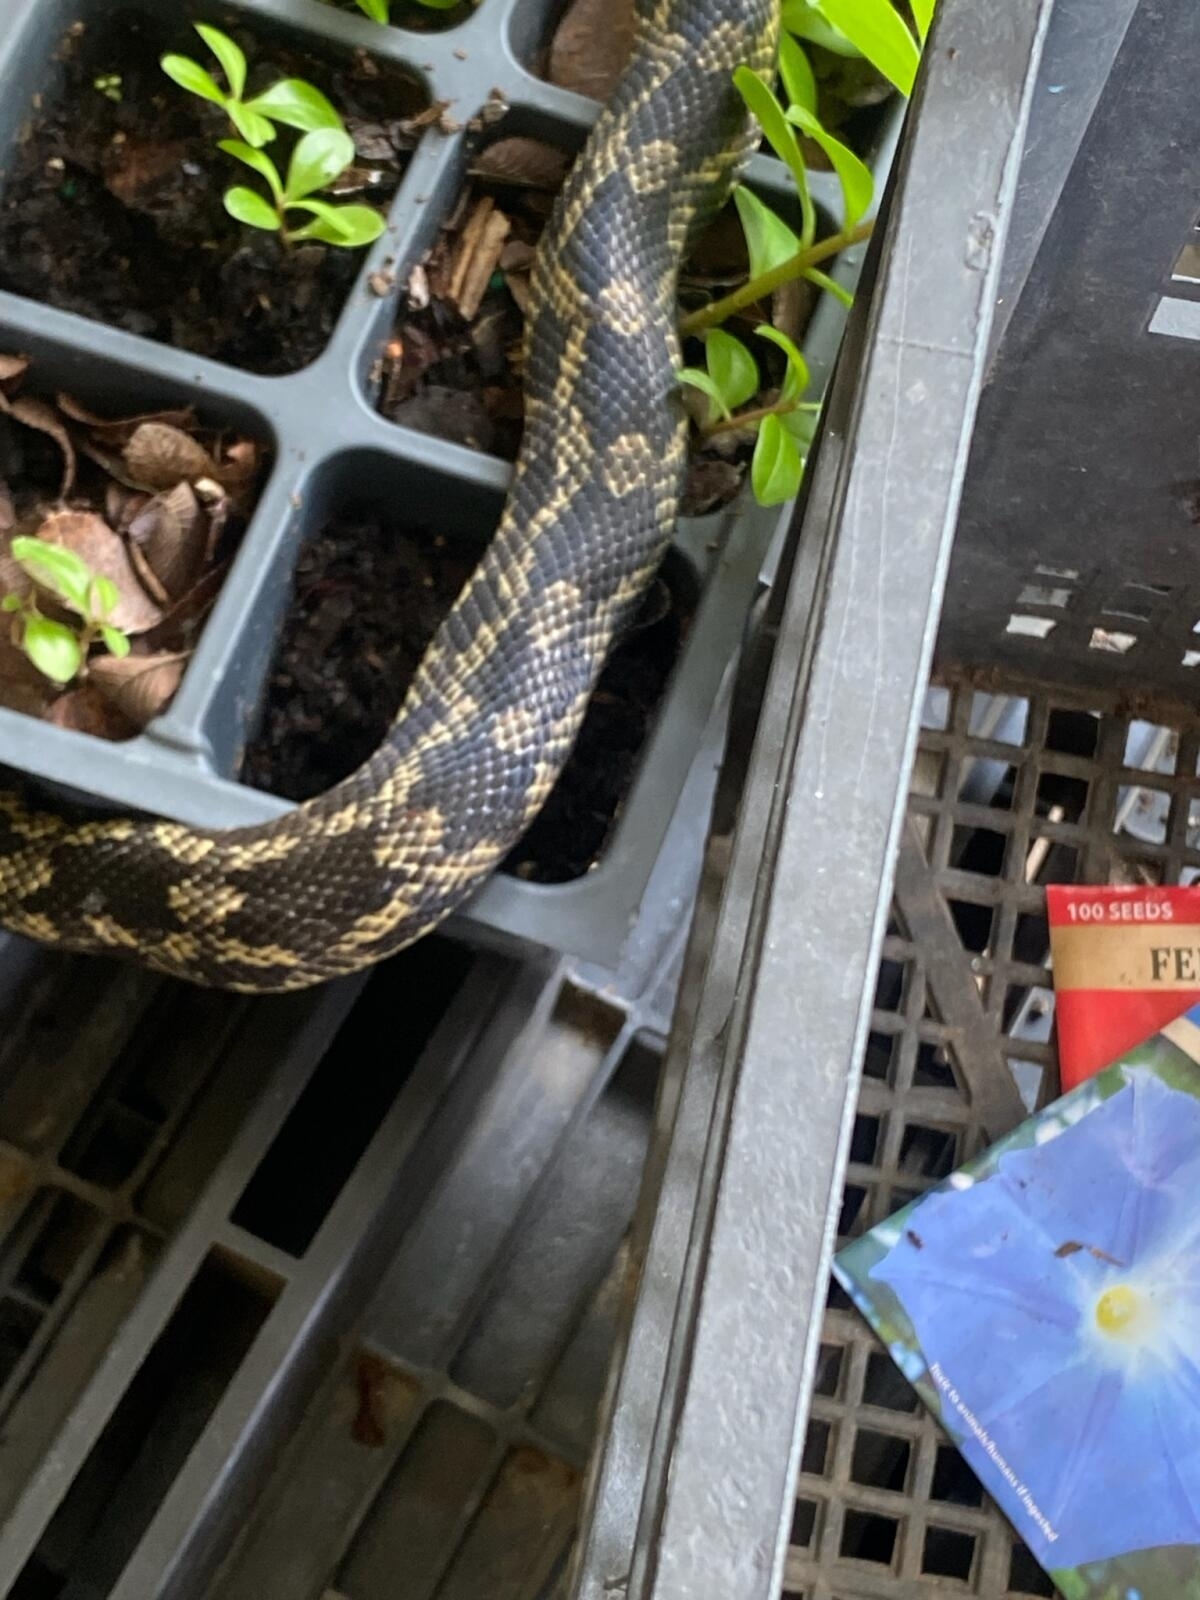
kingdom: Animalia
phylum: Chordata
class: Squamata
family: Colubridae
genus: Pantherophis
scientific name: Pantherophis obsoletus
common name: Black rat snake
